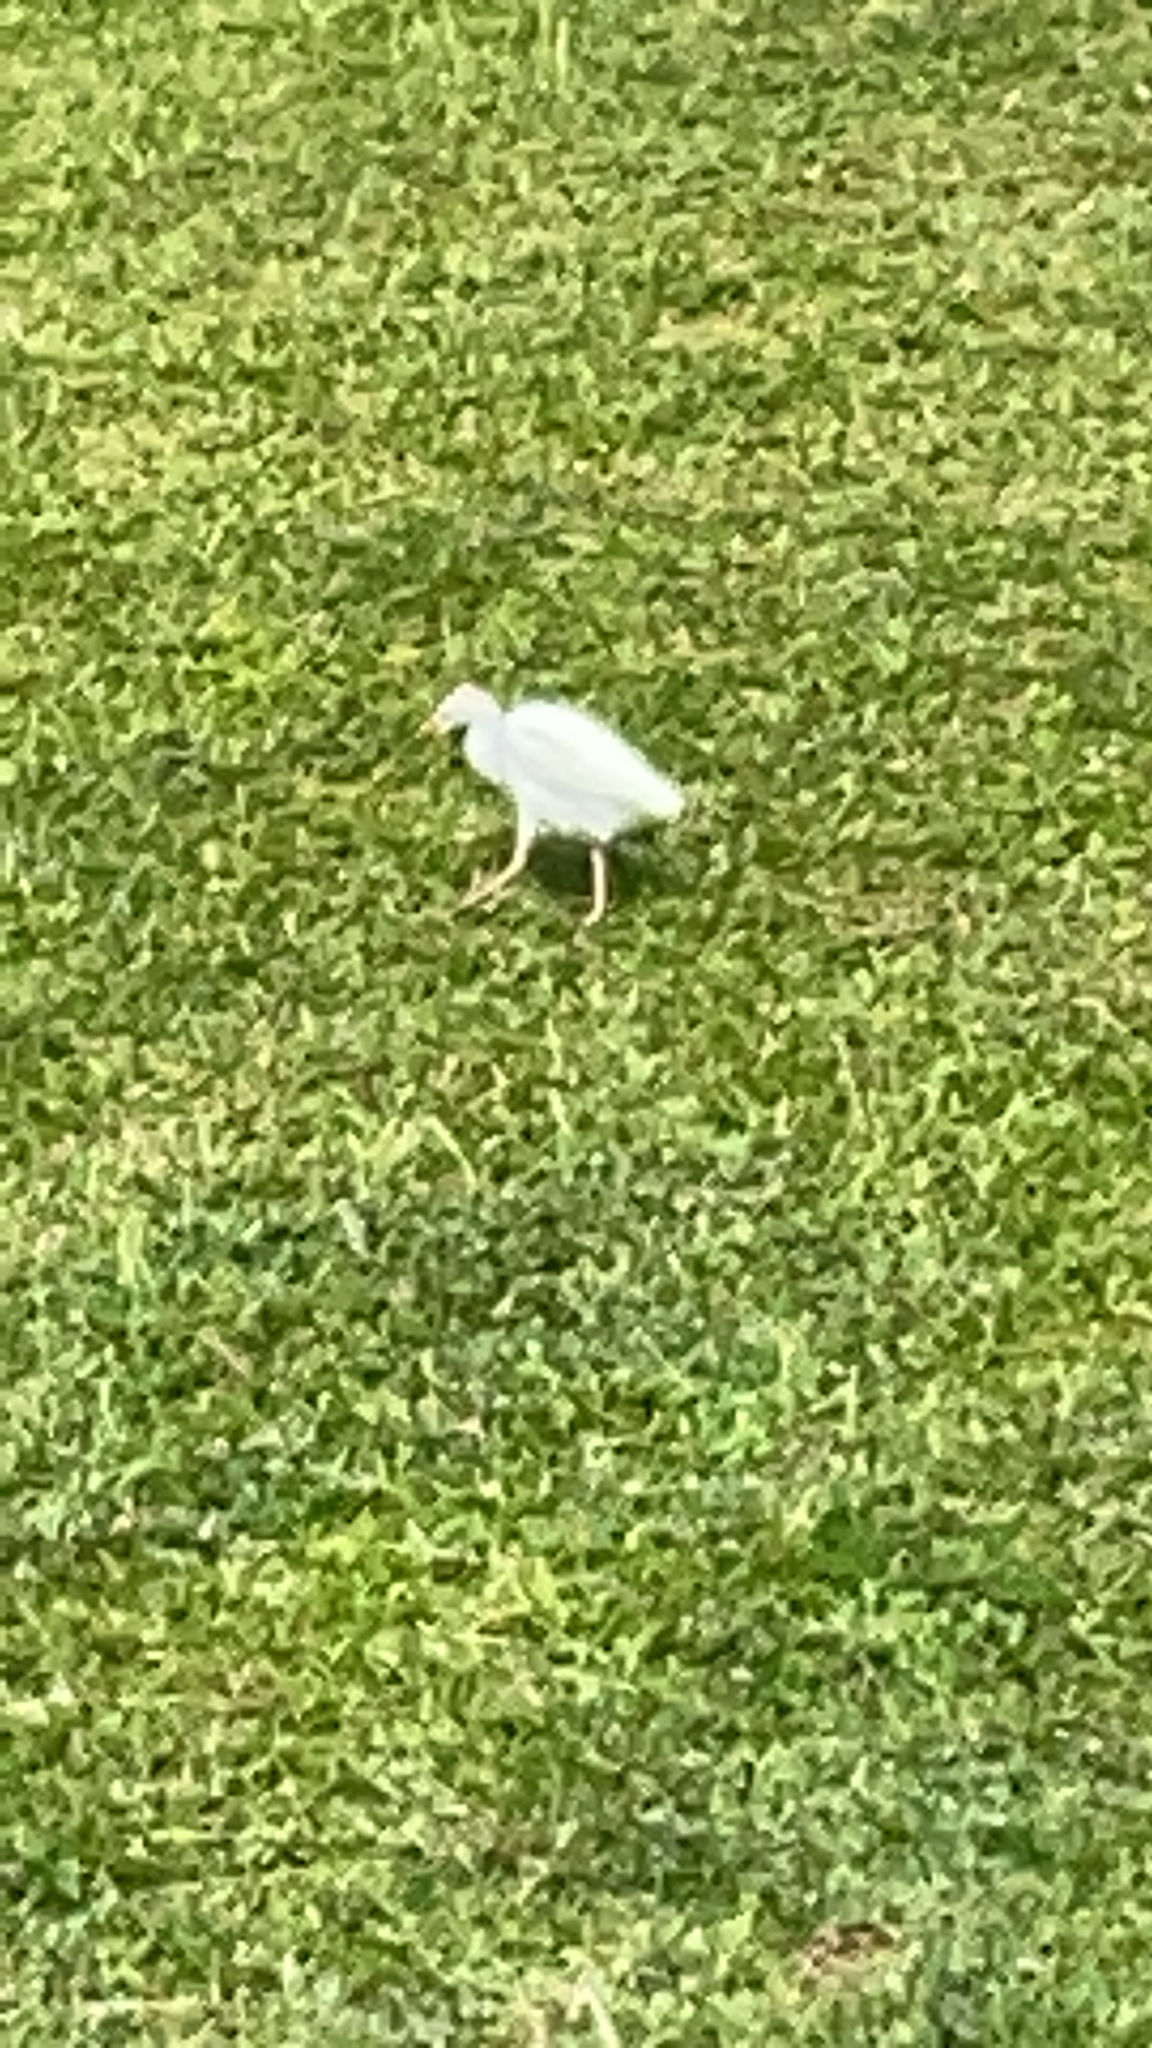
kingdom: Animalia
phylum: Chordata
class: Aves
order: Pelecaniformes
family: Ardeidae
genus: Bubulcus
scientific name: Bubulcus ibis
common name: Cattle egret
